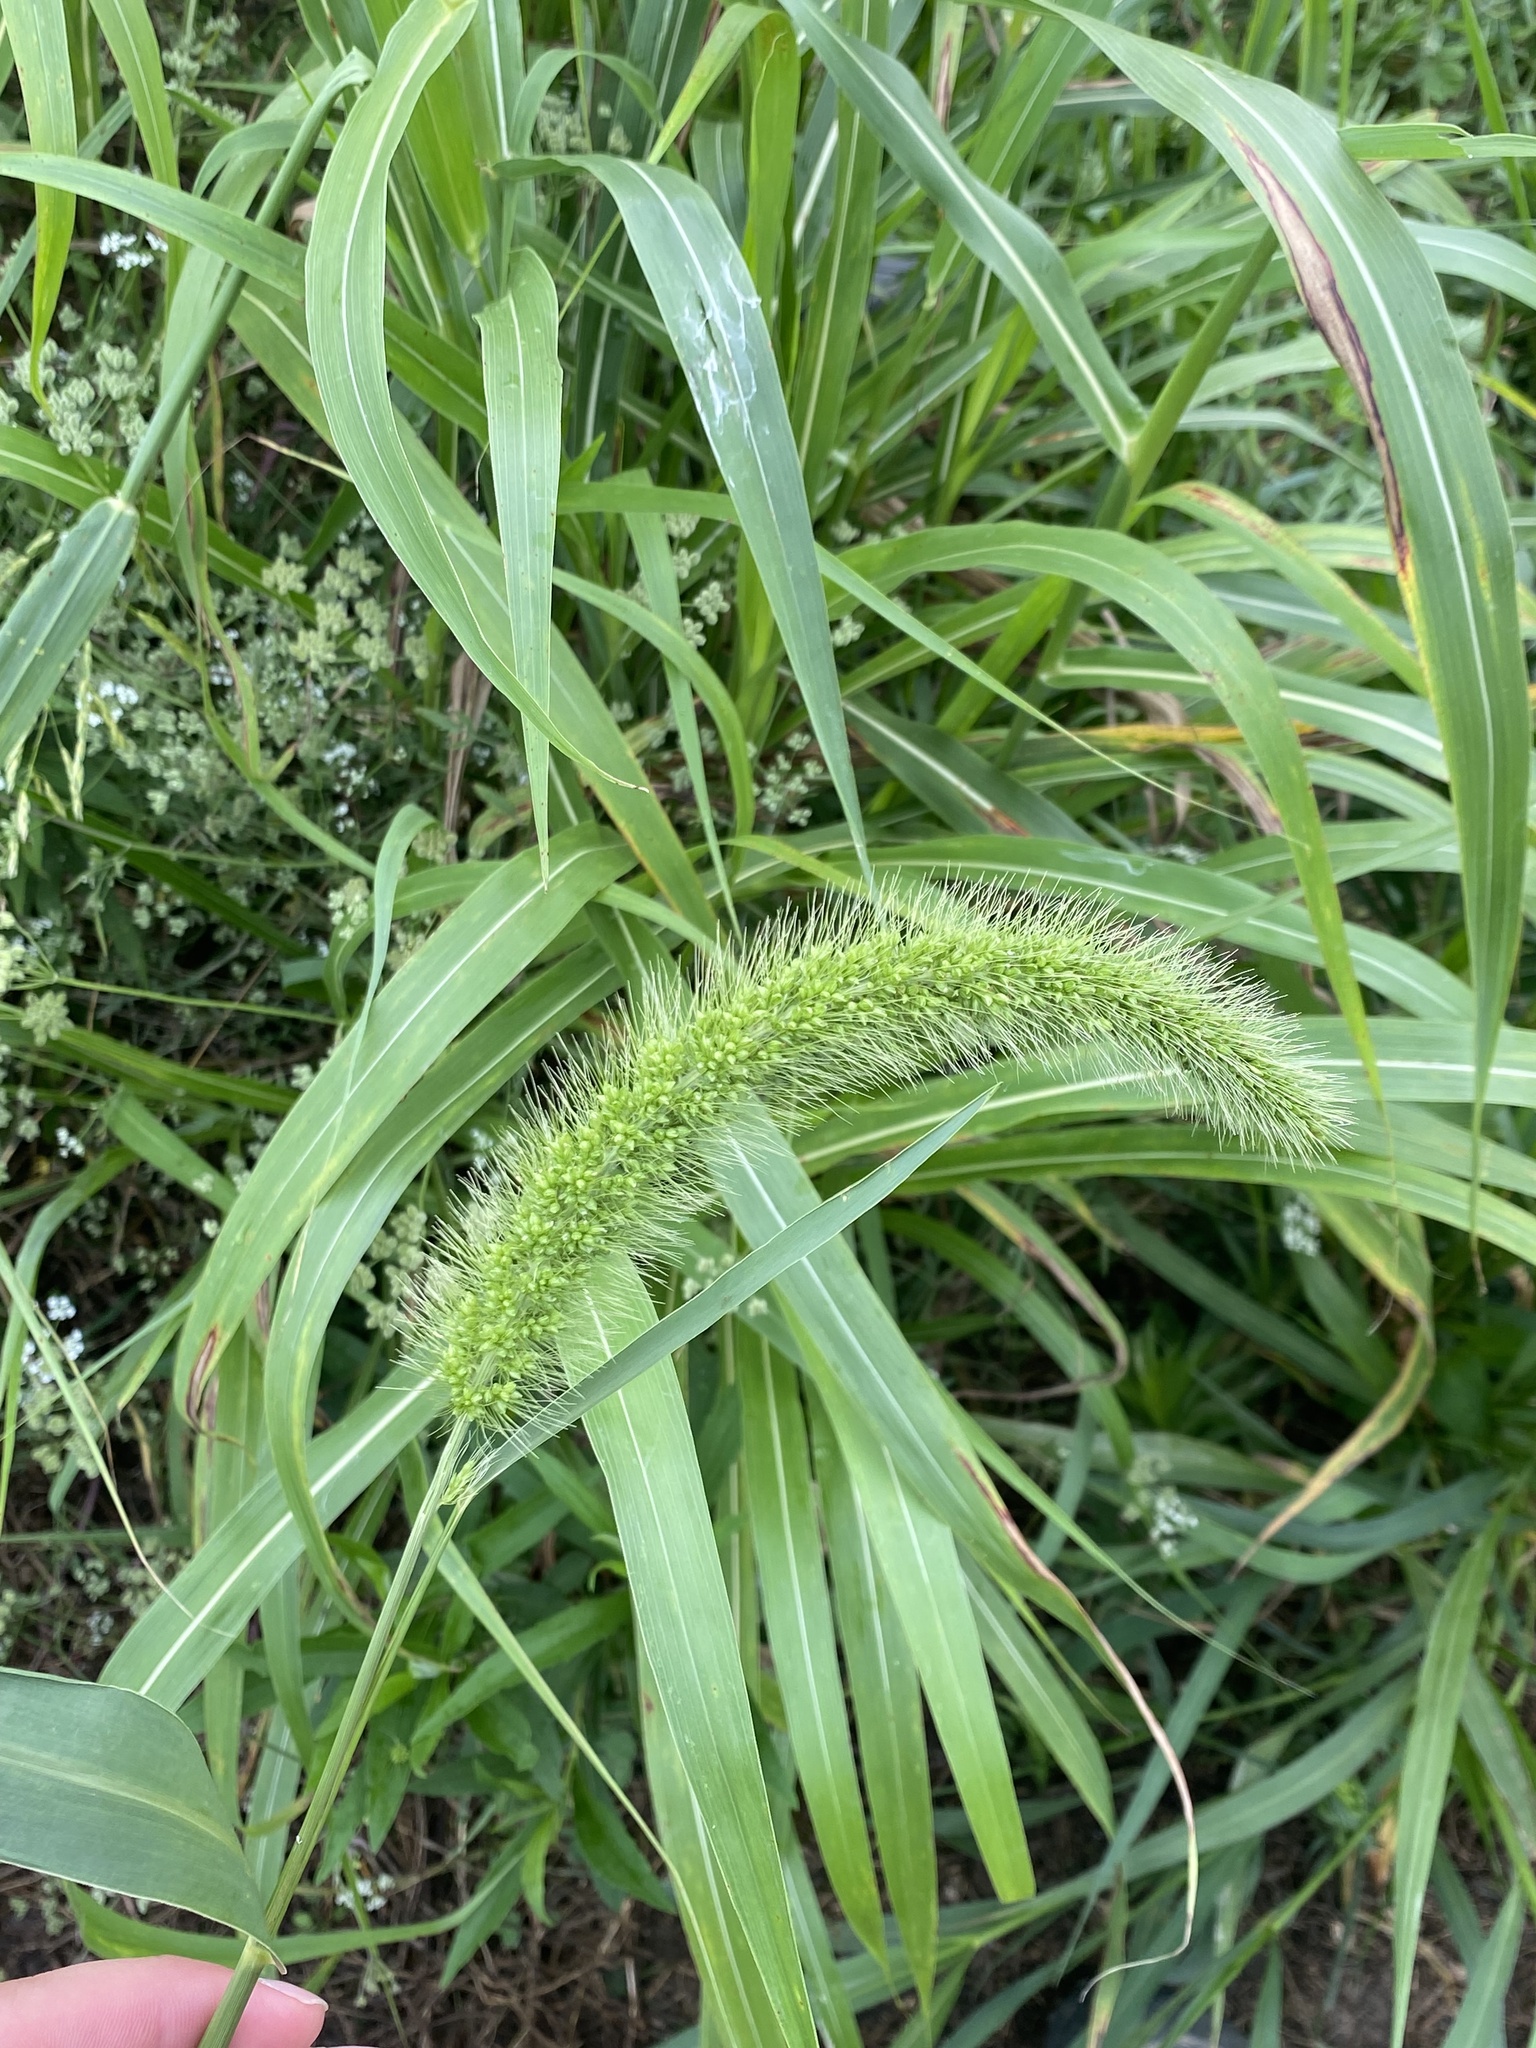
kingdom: Plantae
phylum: Tracheophyta
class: Liliopsida
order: Poales
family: Poaceae
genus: Setaria
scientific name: Setaria faberi
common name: Nodding bristle-grass
